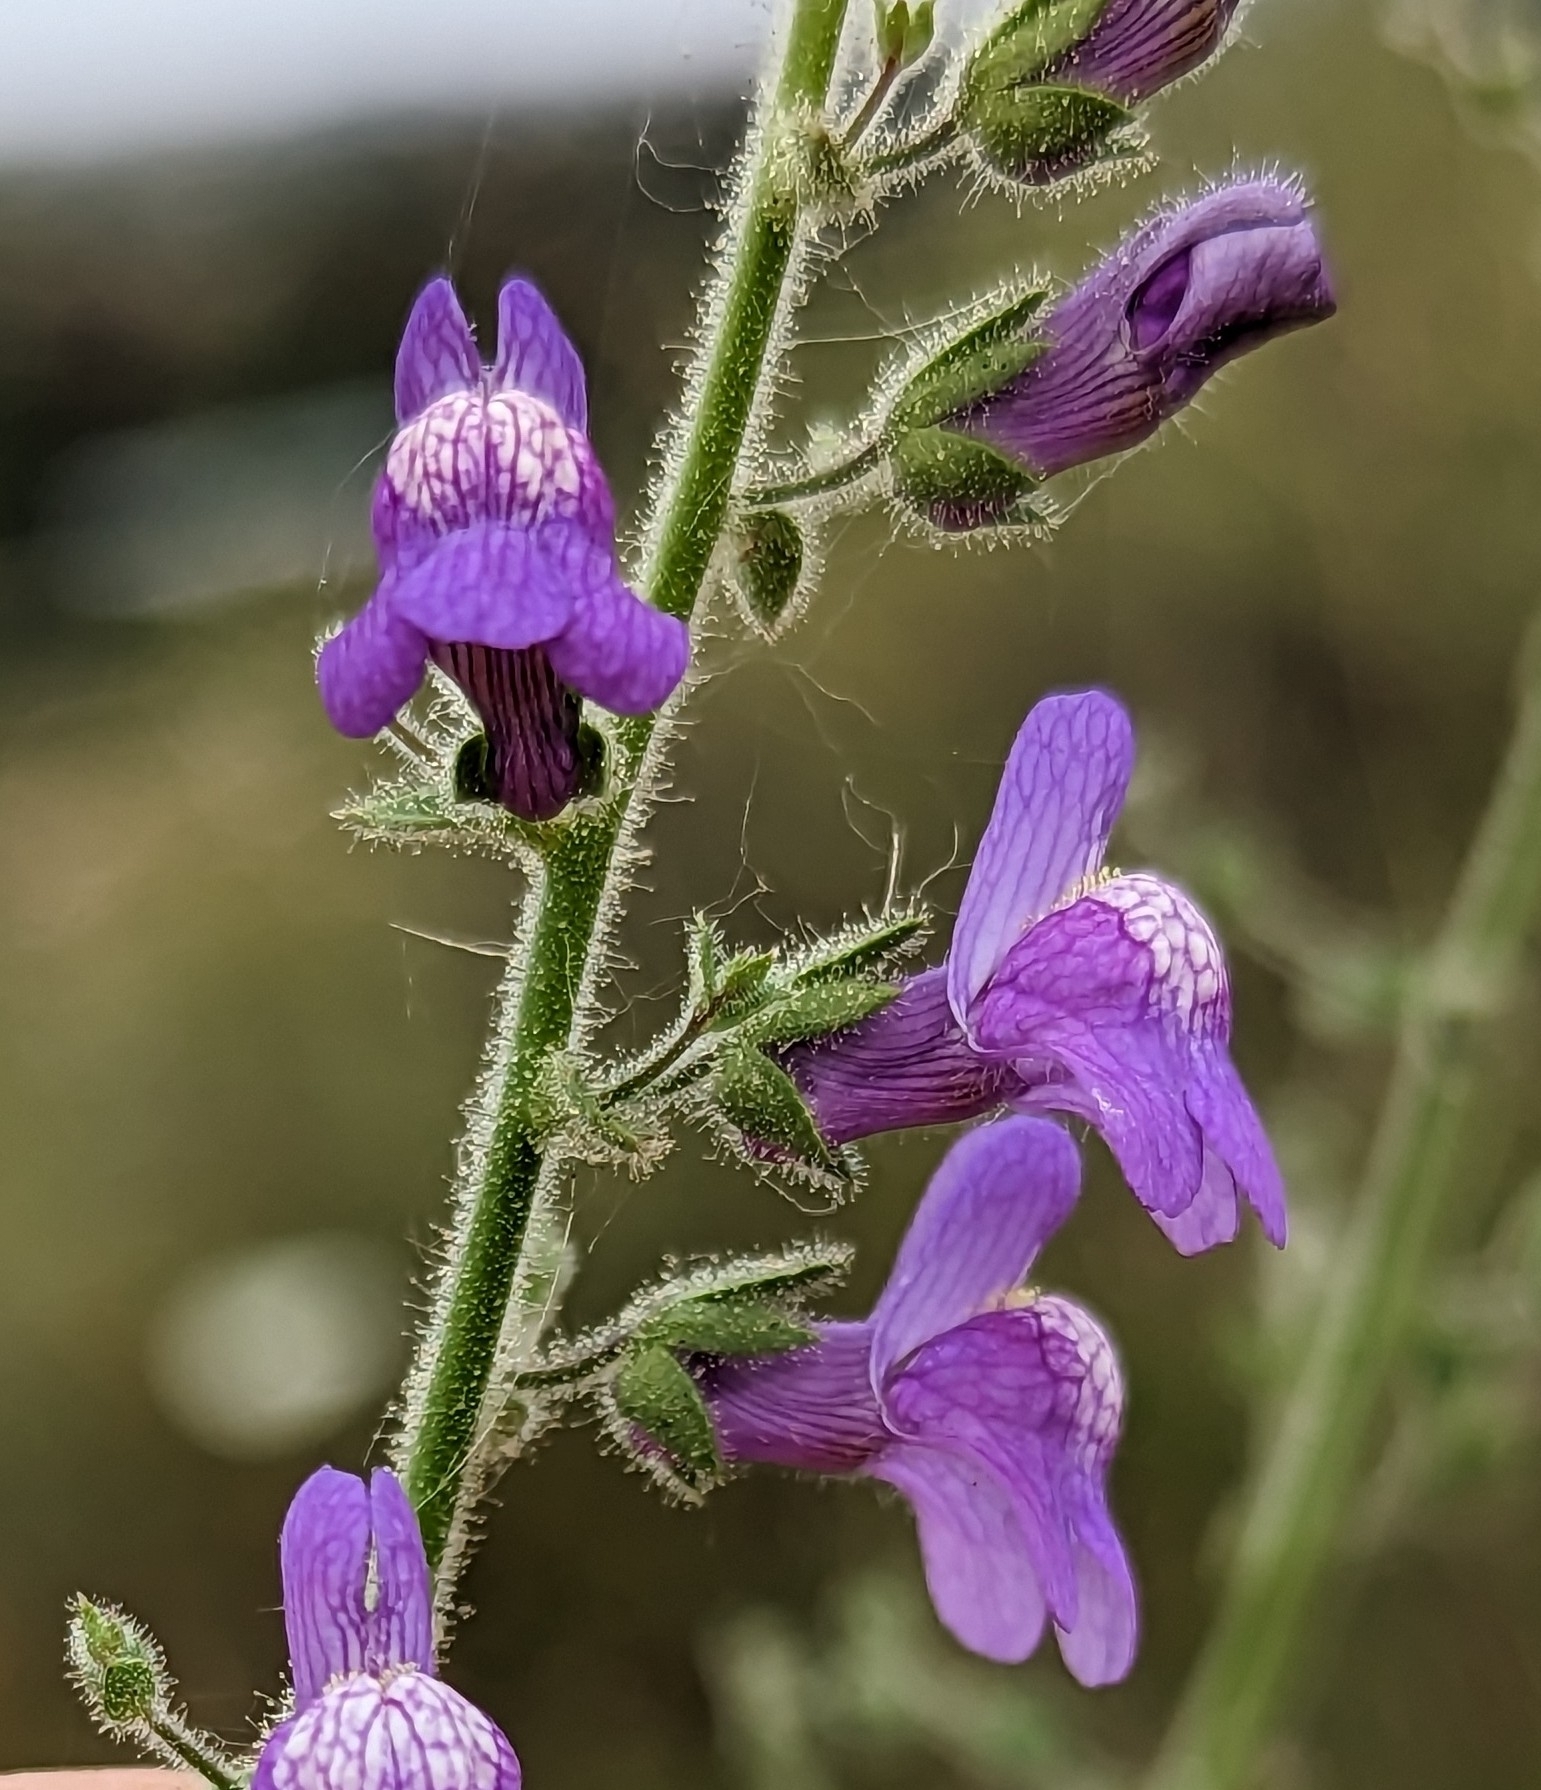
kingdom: Plantae
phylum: Tracheophyta
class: Magnoliopsida
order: Lamiales
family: Plantaginaceae
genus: Sairocarpus
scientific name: Sairocarpus nuttallianus
